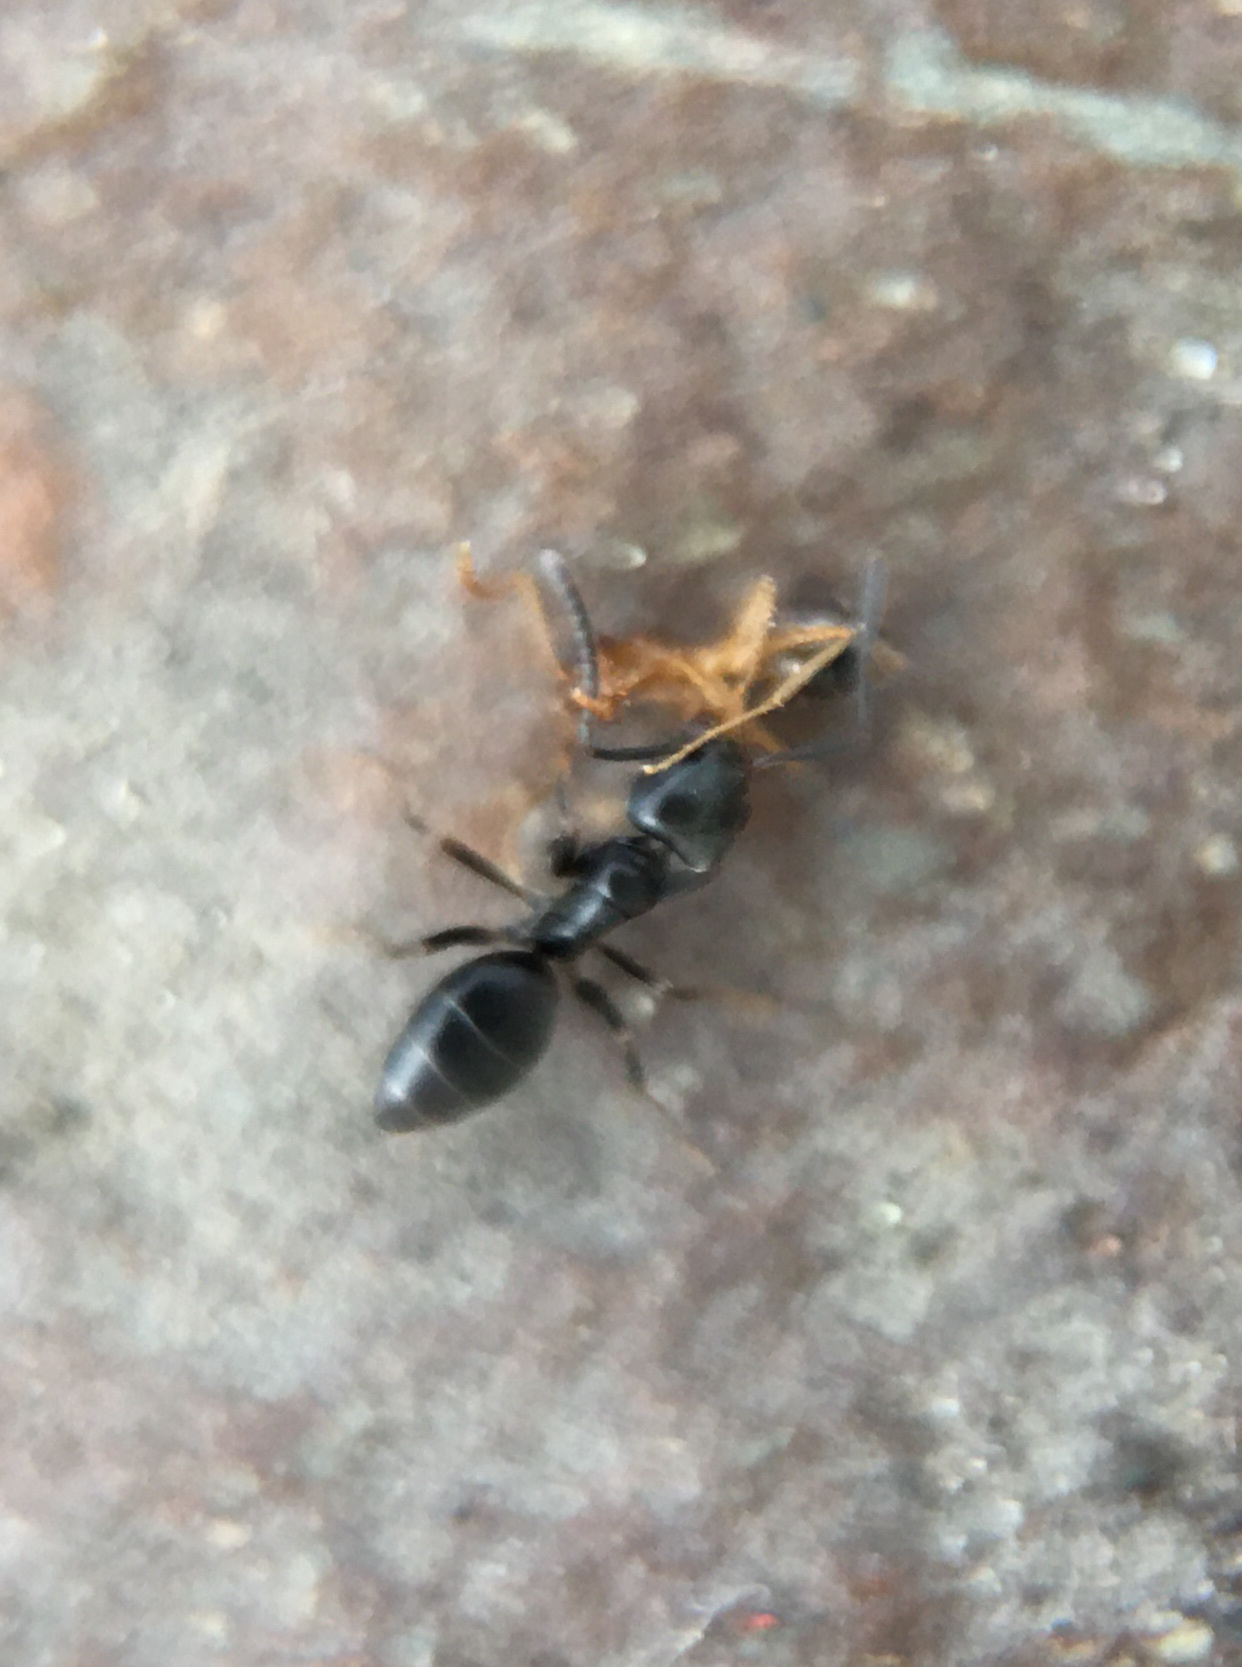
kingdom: Animalia
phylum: Arthropoda
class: Insecta
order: Hymenoptera
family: Formicidae
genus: Tapinoma
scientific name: Tapinoma sessile
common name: Odorous house ant
